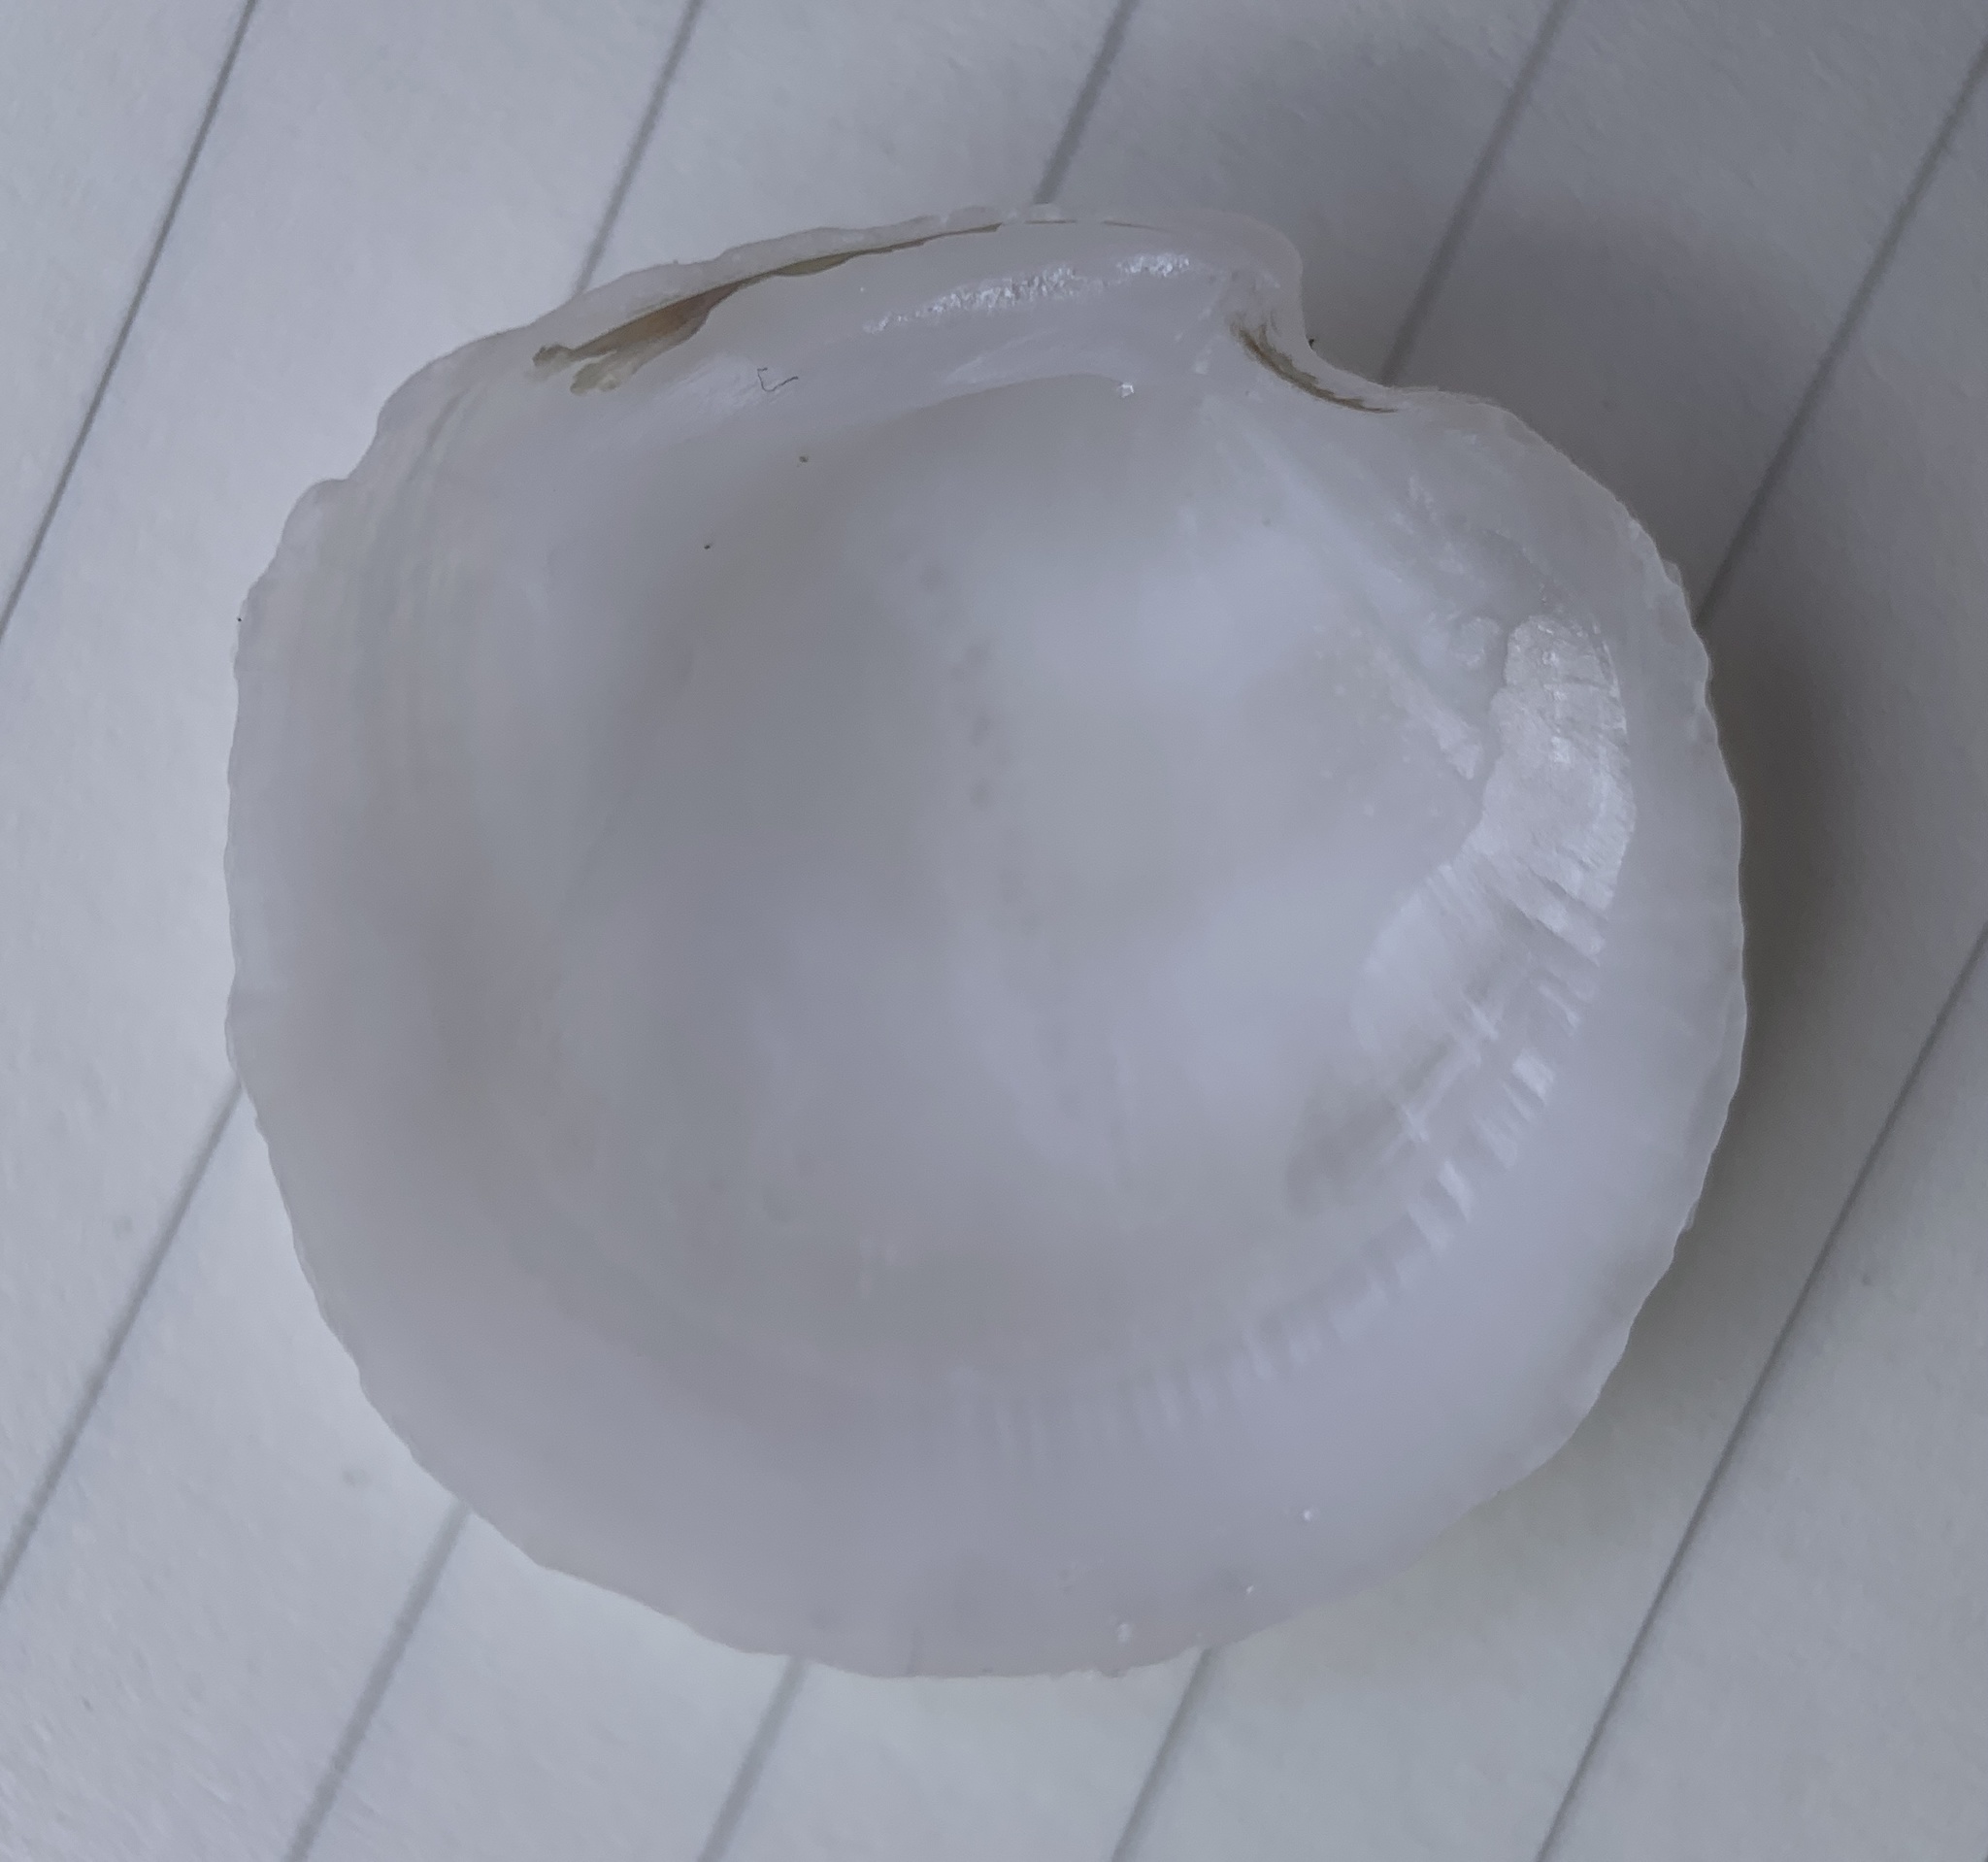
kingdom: Animalia
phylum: Mollusca
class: Bivalvia
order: Lucinida
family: Lucinidae
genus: Stewartia
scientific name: Stewartia floridana
